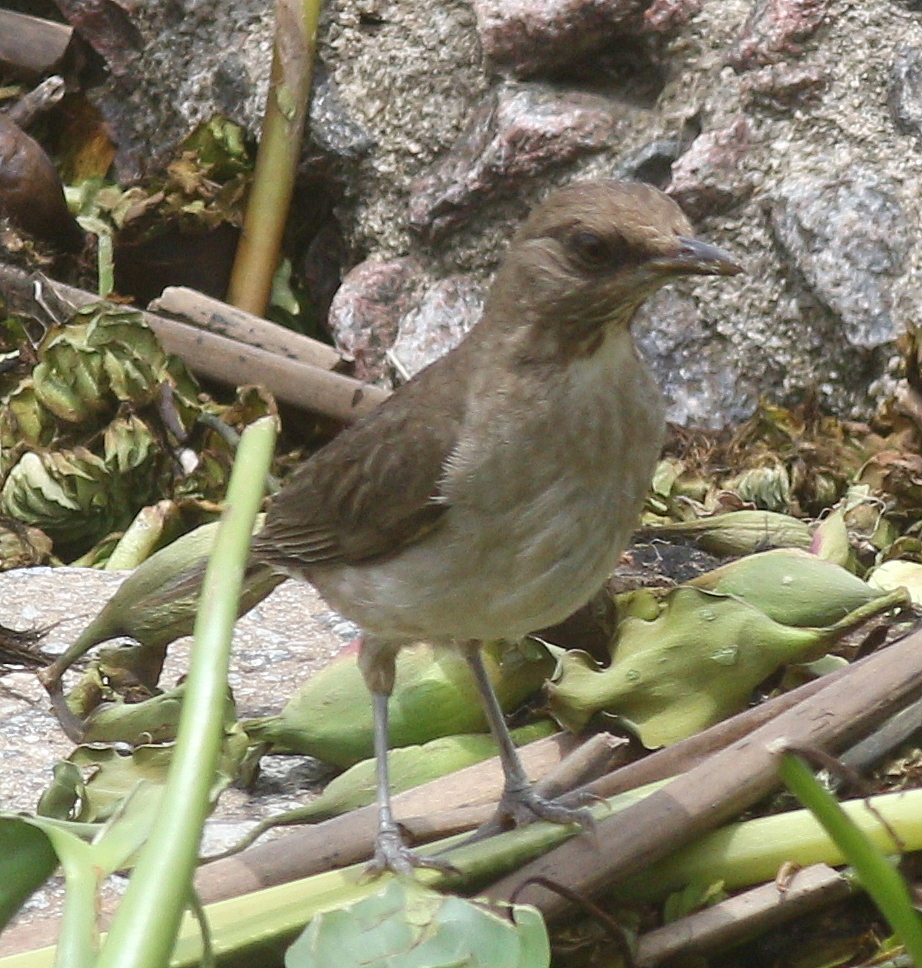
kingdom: Animalia
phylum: Chordata
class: Aves
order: Passeriformes
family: Turdidae
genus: Turdus
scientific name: Turdus amaurochalinus
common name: Creamy-bellied thrush
